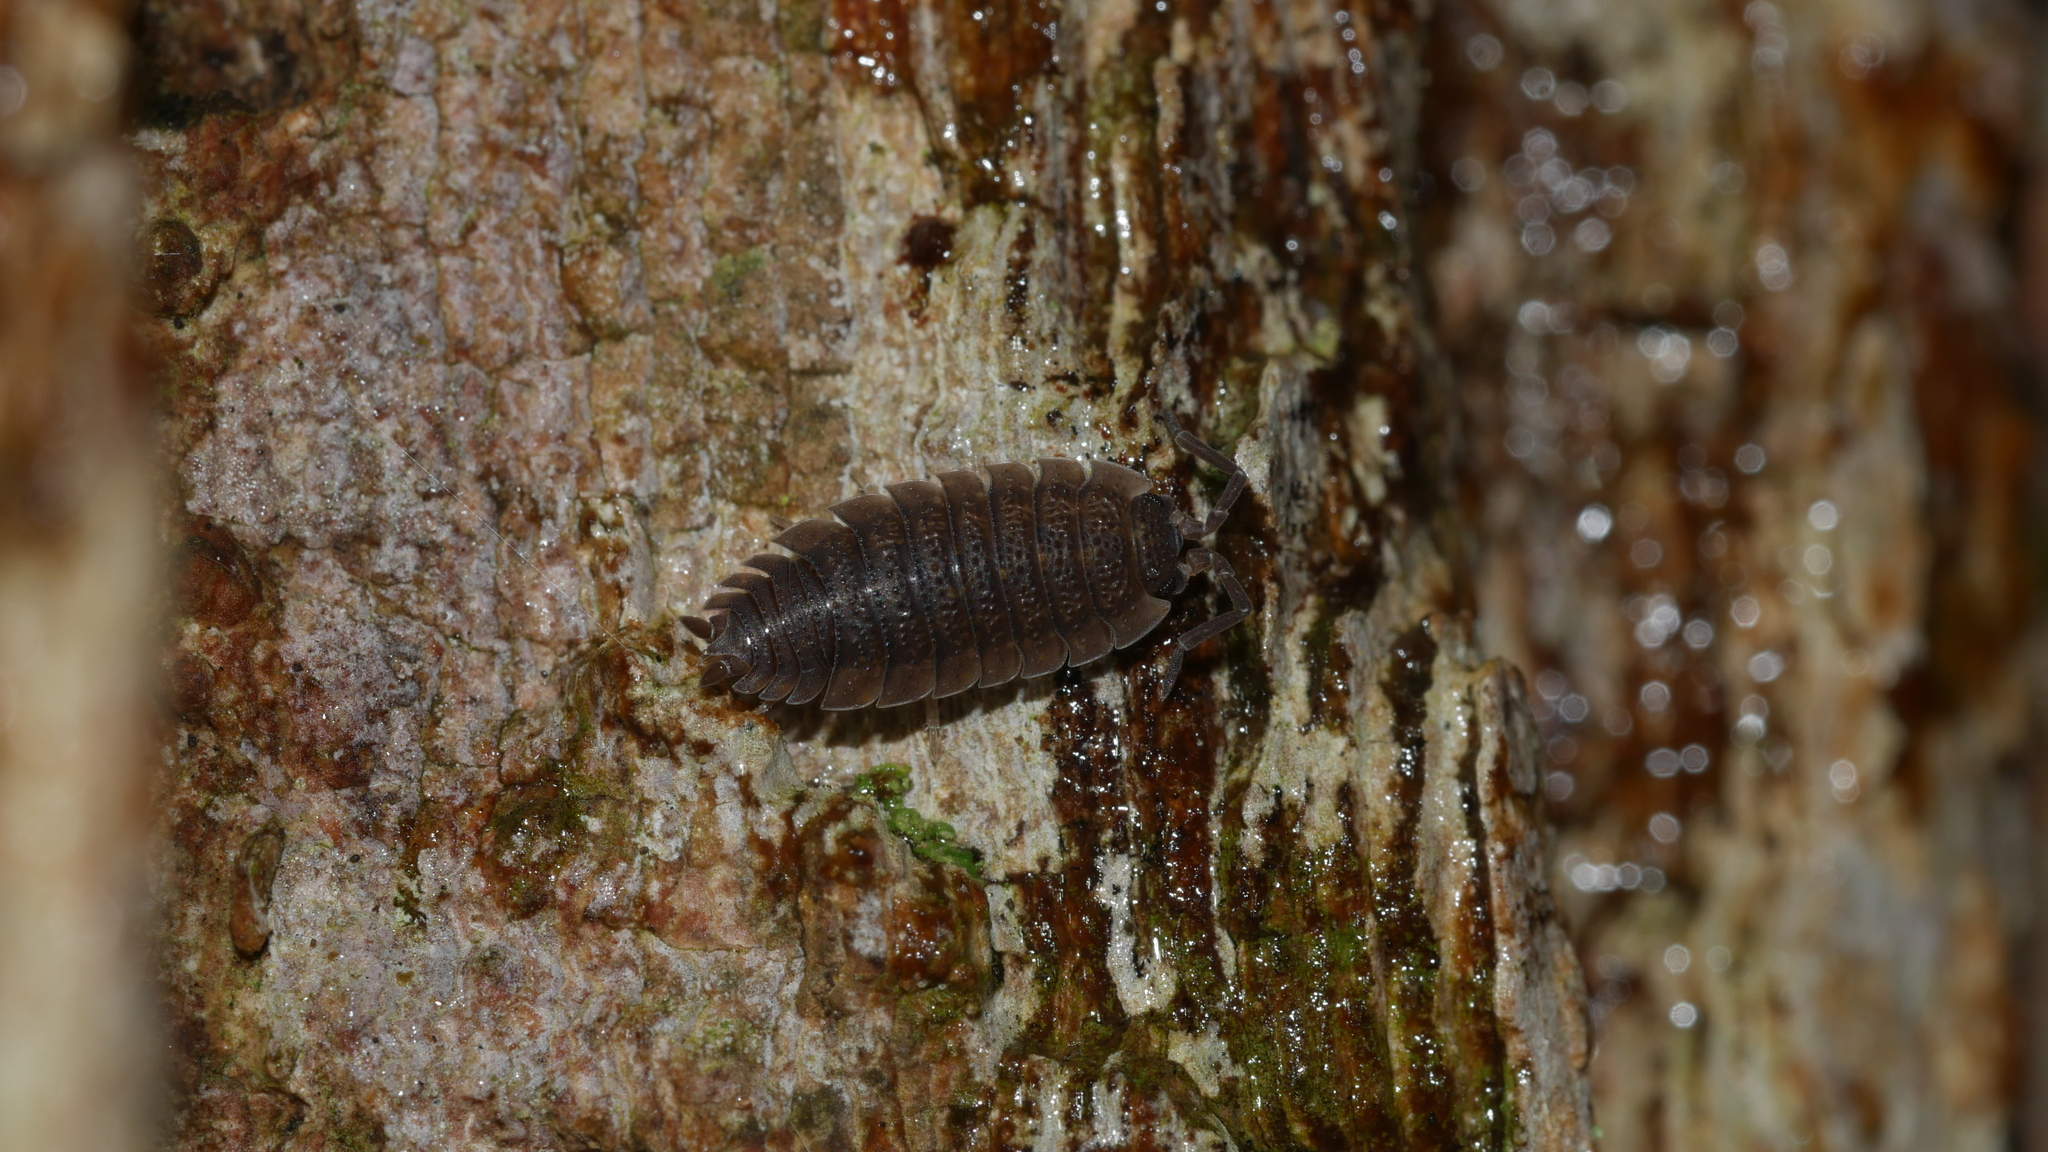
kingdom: Animalia
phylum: Arthropoda
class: Malacostraca
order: Isopoda
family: Porcellionidae
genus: Porcellio
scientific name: Porcellio scaber
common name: Common rough woodlouse
